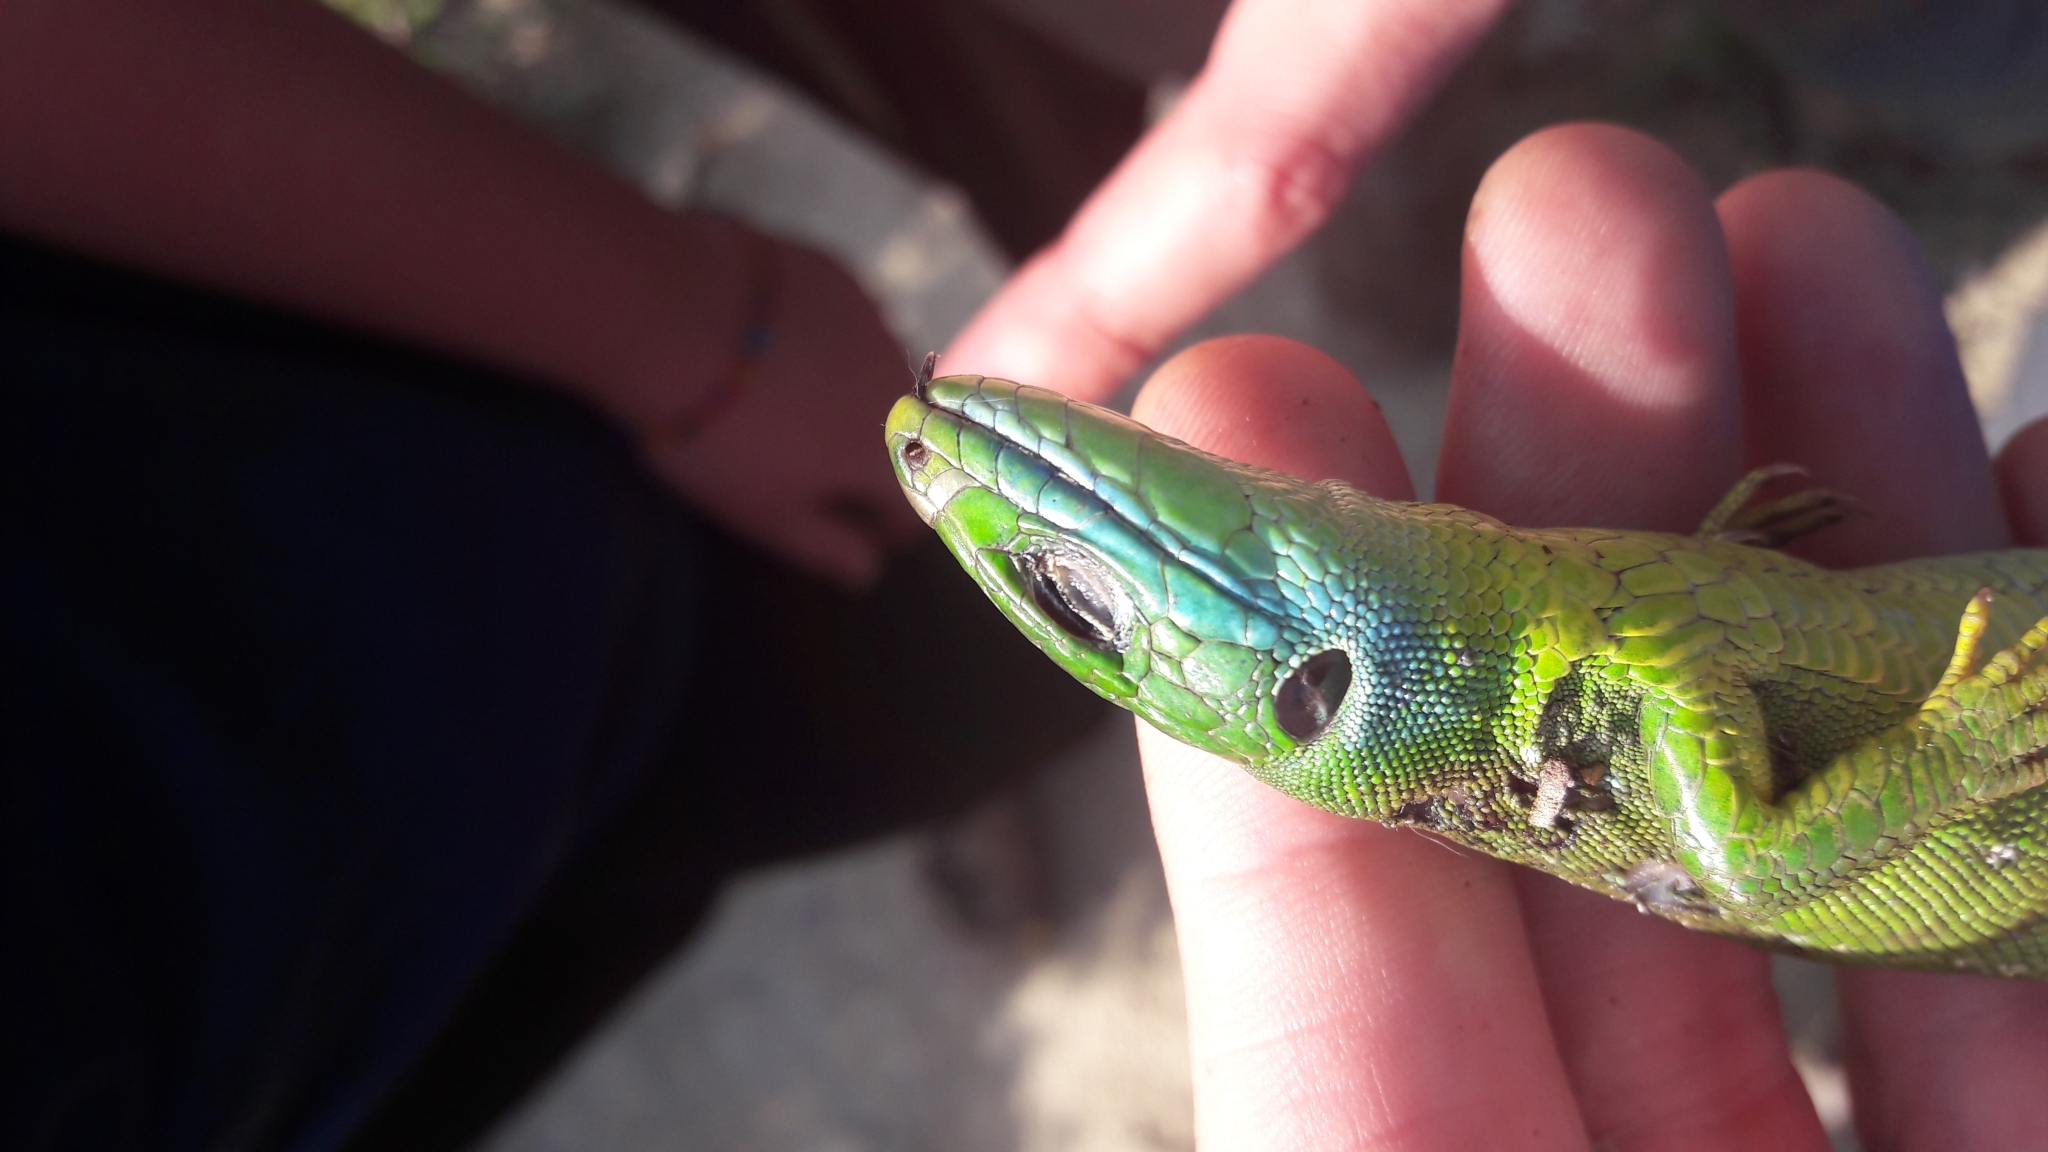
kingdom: Animalia
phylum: Chordata
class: Squamata
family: Lacertidae
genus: Lacerta
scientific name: Lacerta bilineata
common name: Western green lizard
